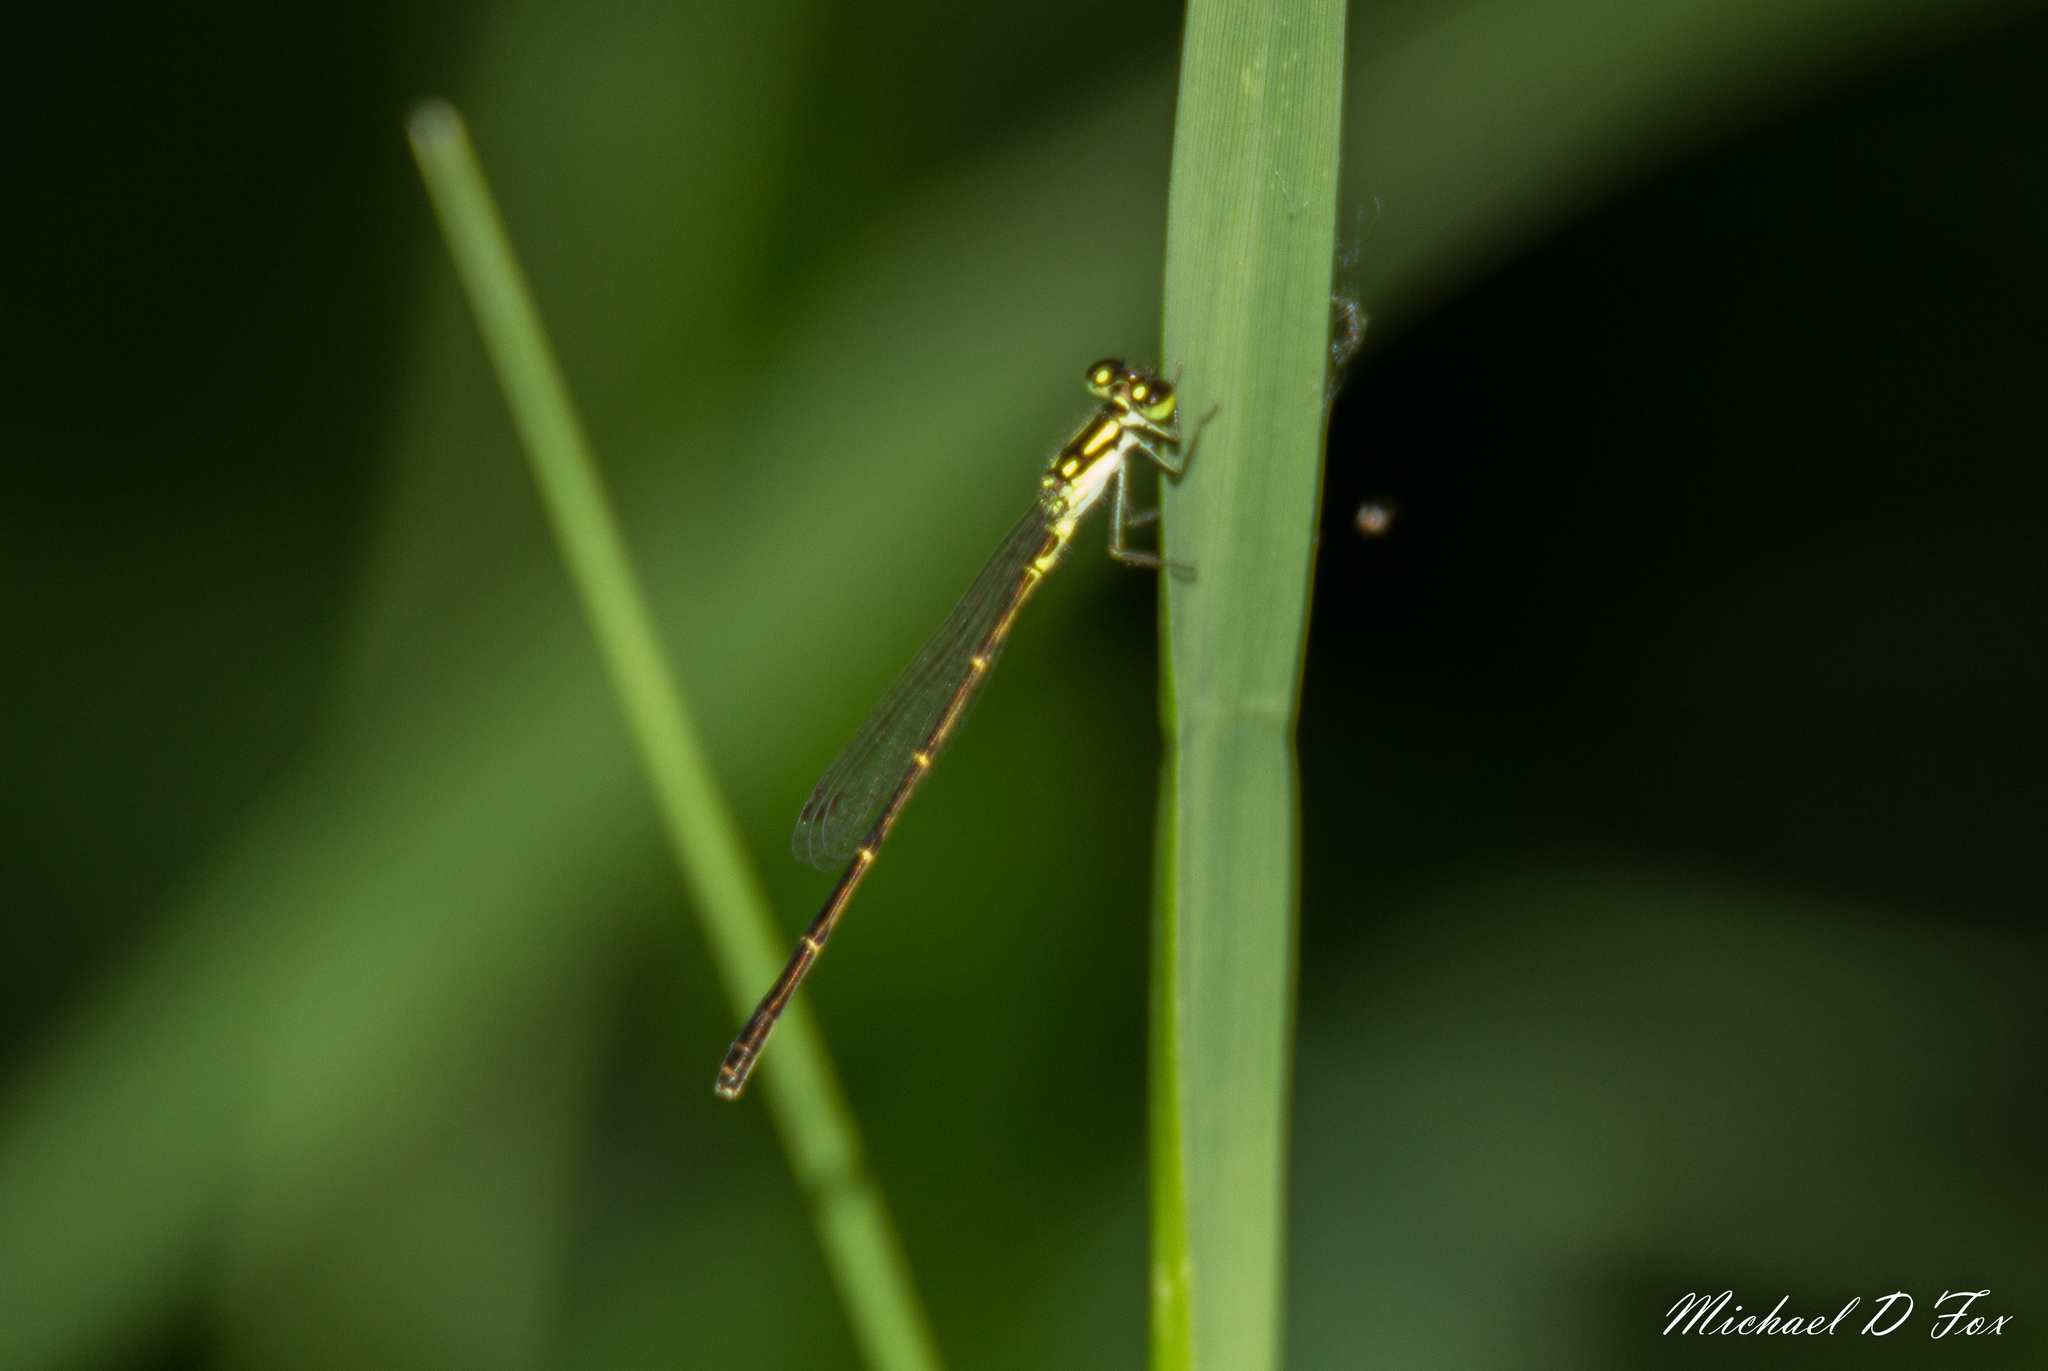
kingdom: Animalia
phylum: Arthropoda
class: Insecta
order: Odonata
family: Coenagrionidae
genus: Ischnura
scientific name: Ischnura posita
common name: Fragile forktail
